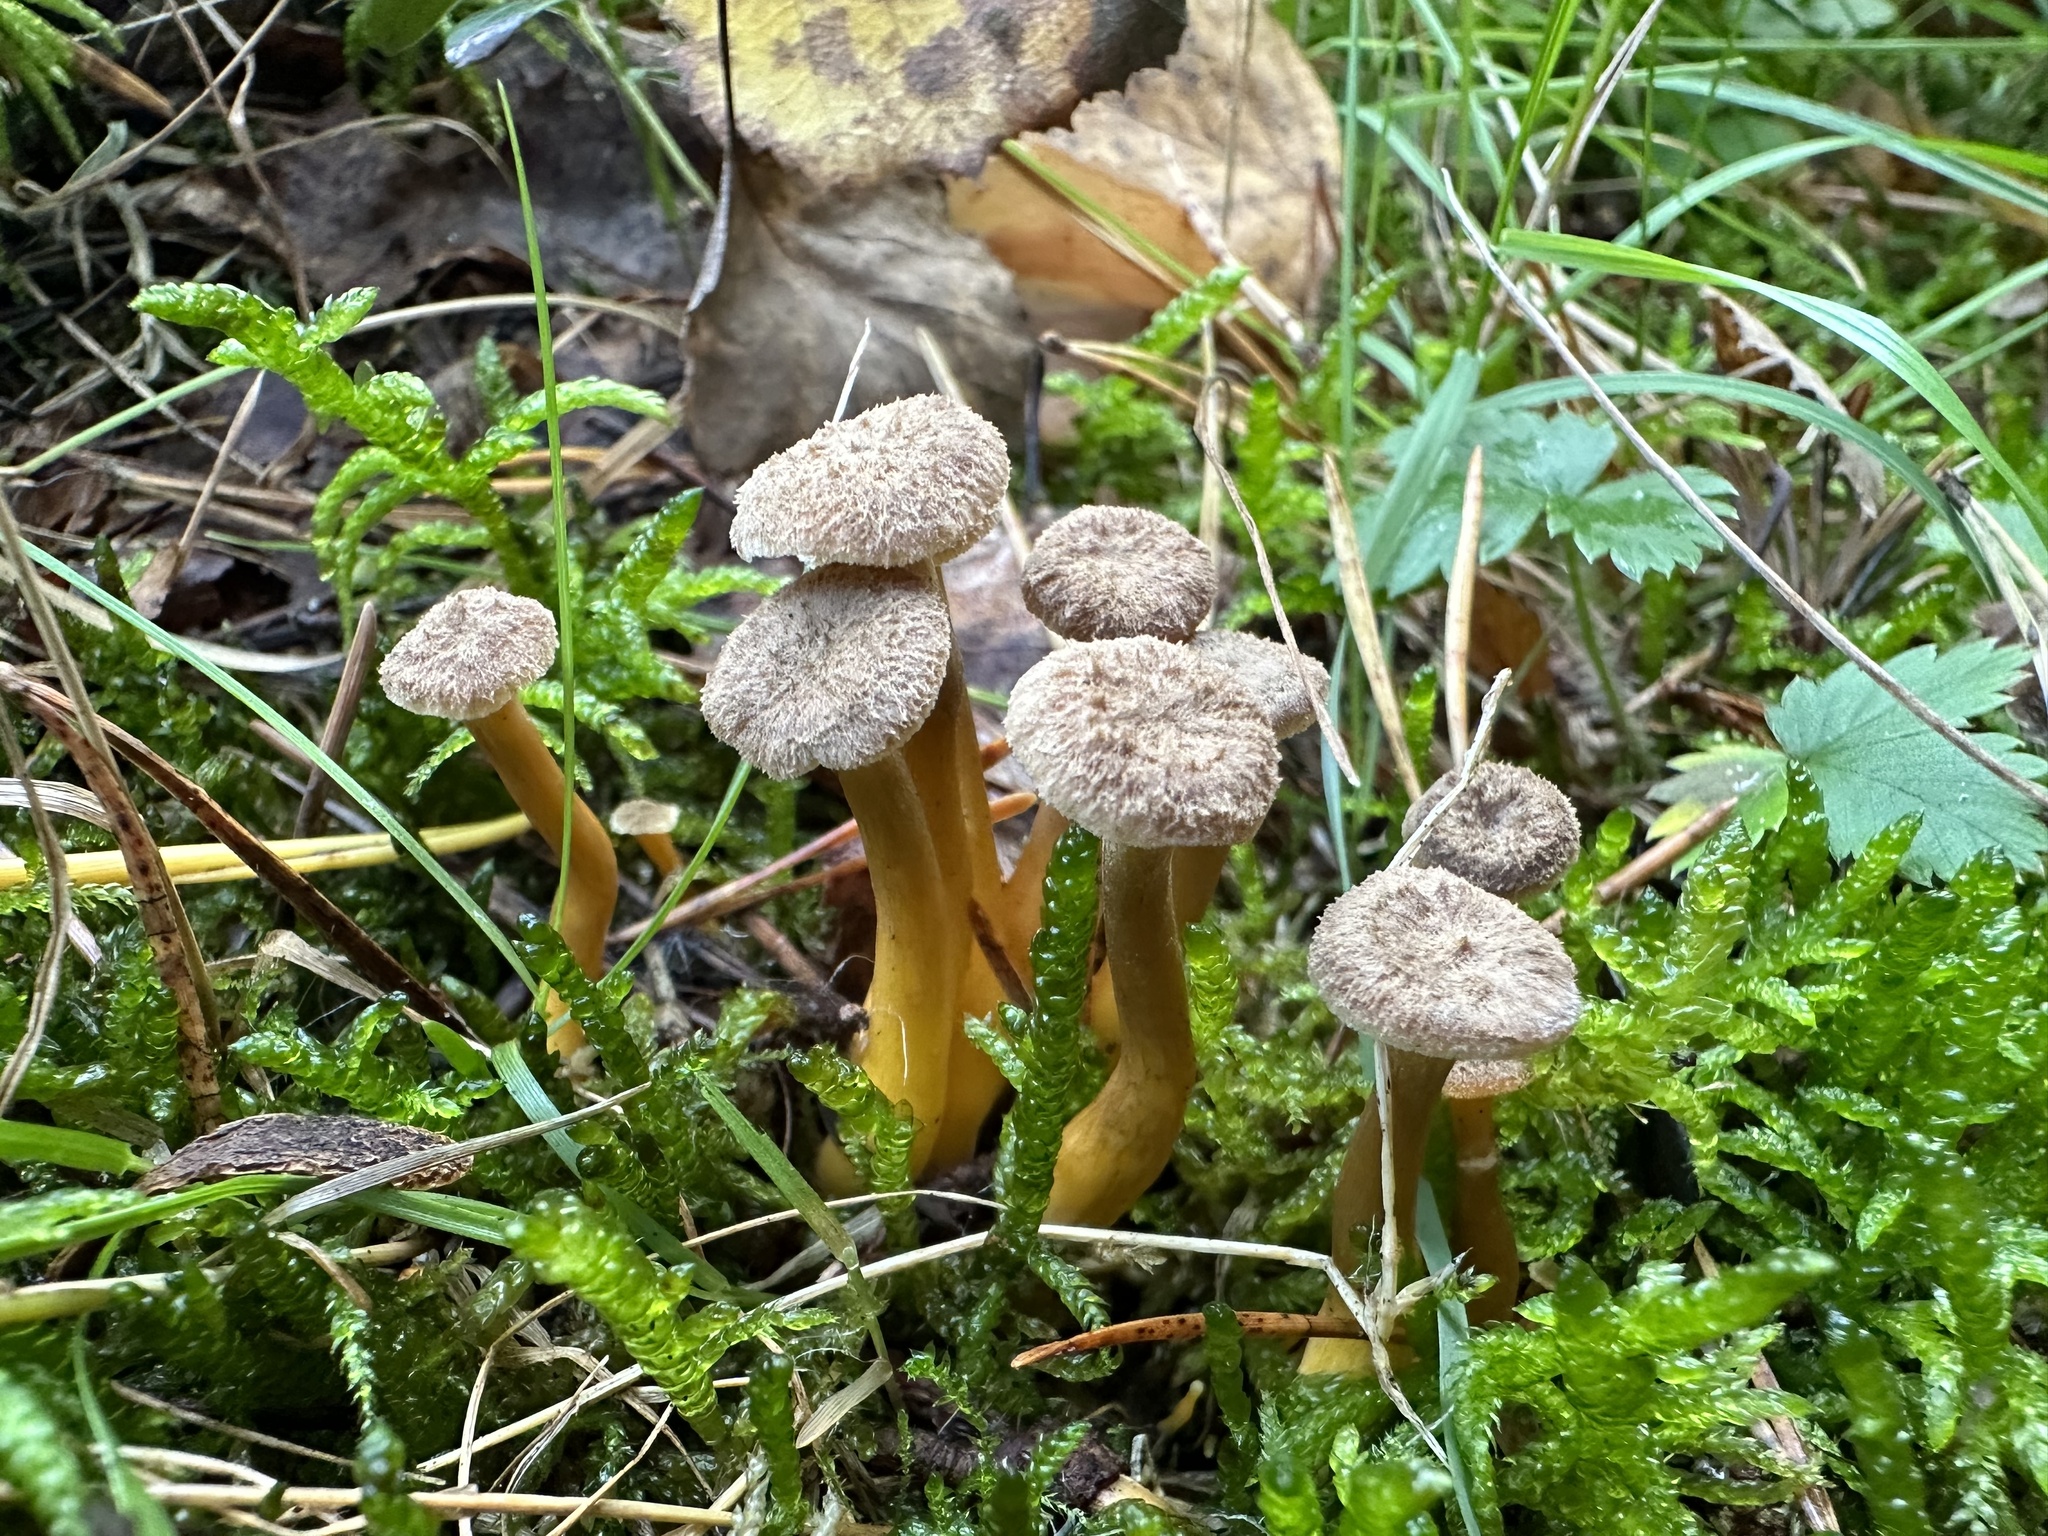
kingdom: Fungi
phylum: Basidiomycota
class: Agaricomycetes
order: Cantharellales
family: Hydnaceae
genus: Craterellus
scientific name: Craterellus tubaeformis
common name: Yellowfoot
